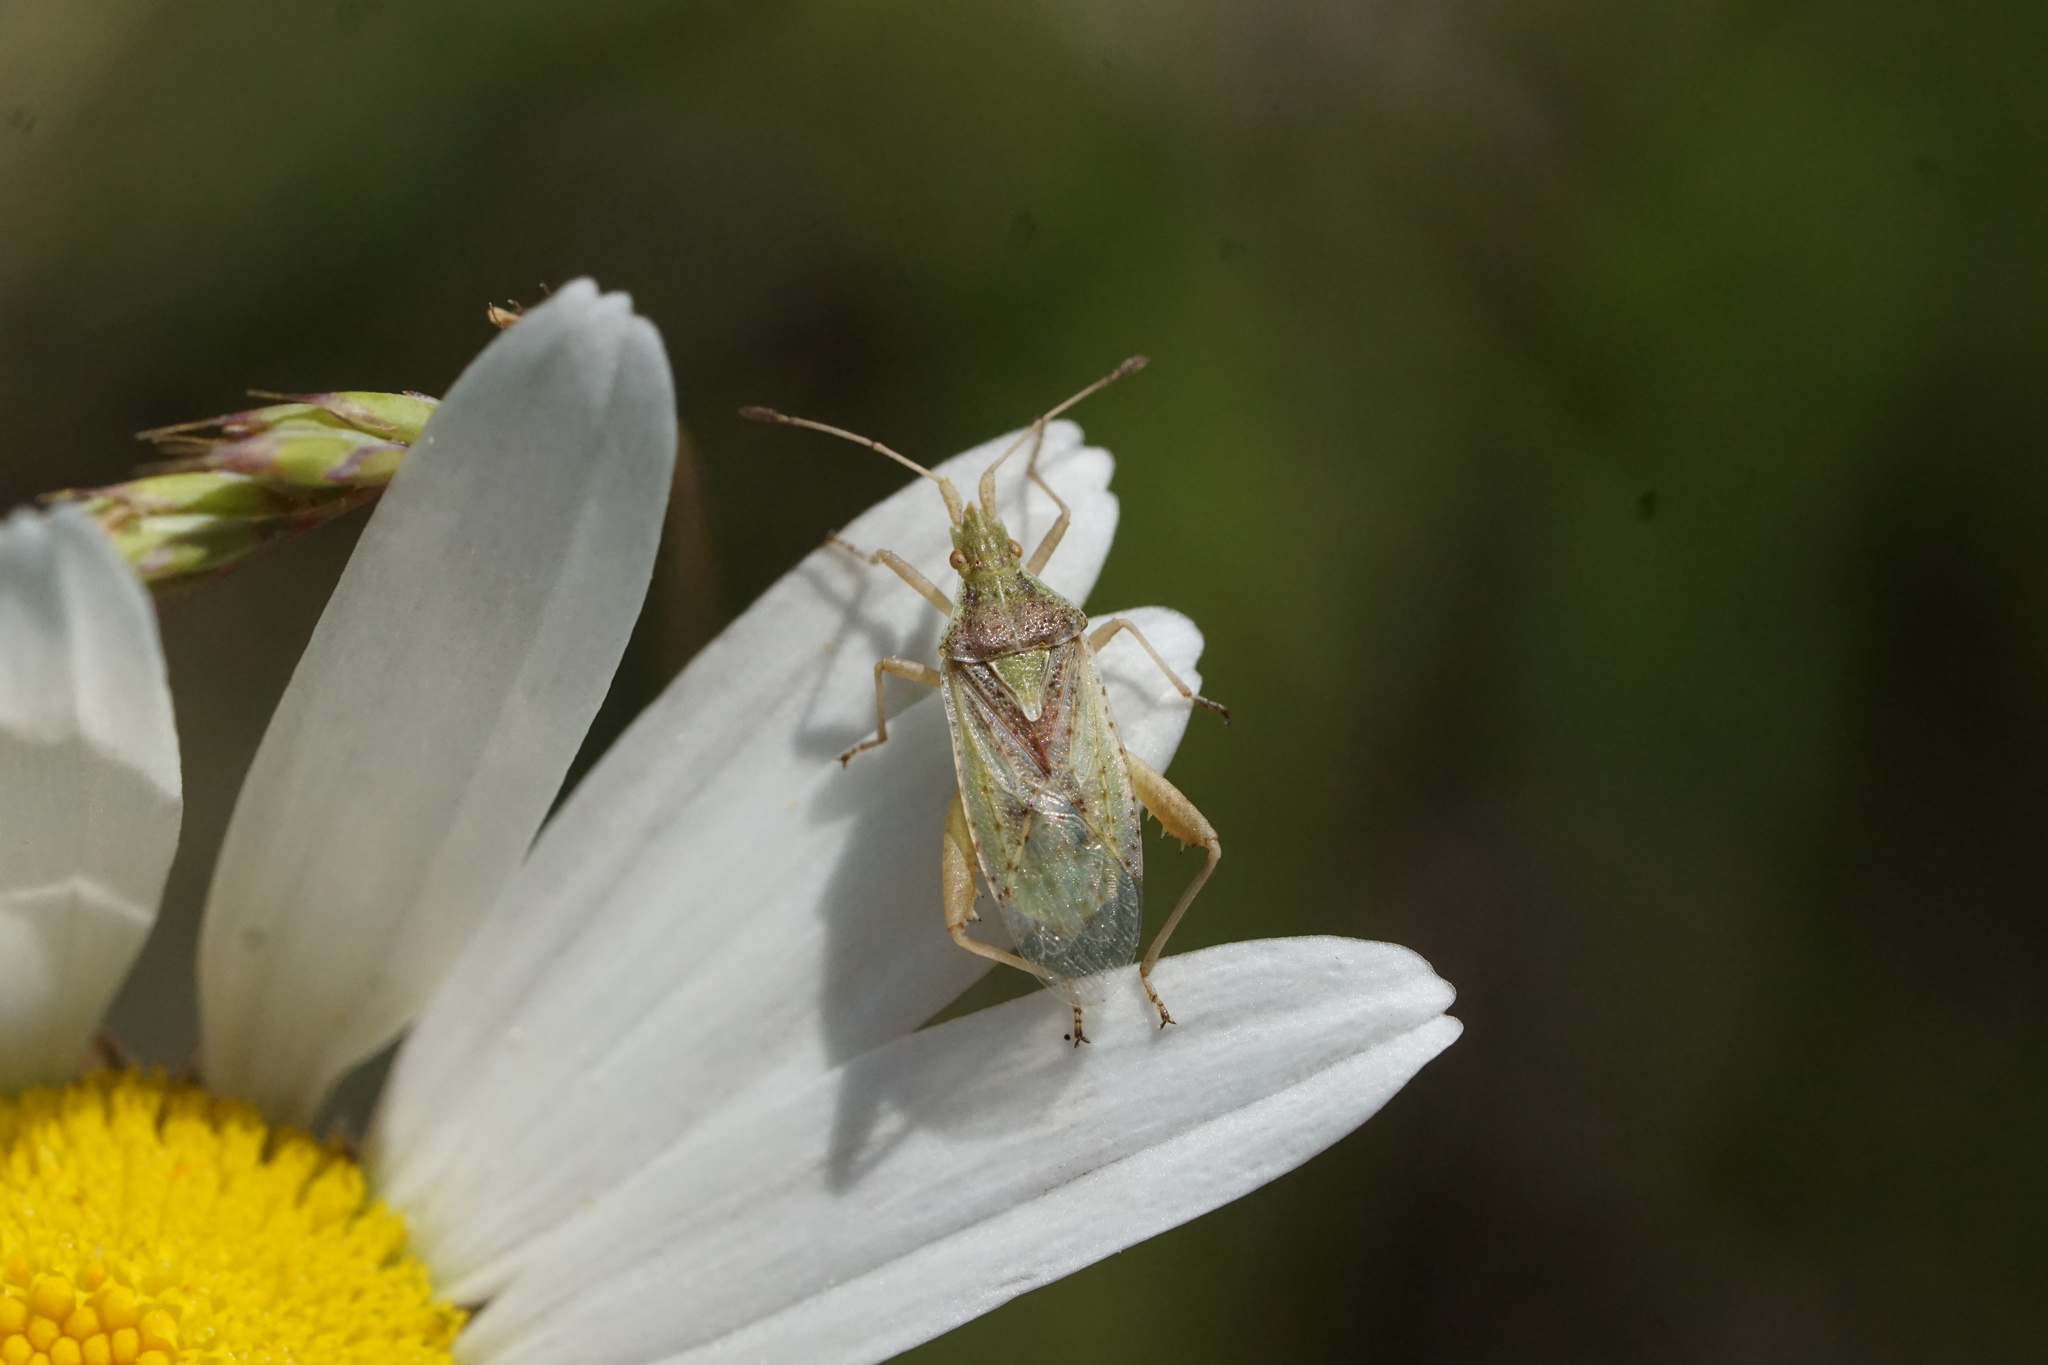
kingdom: Animalia
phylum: Arthropoda
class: Insecta
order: Hemiptera
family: Rhopalidae
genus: Harmostes
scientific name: Harmostes reflexulus
